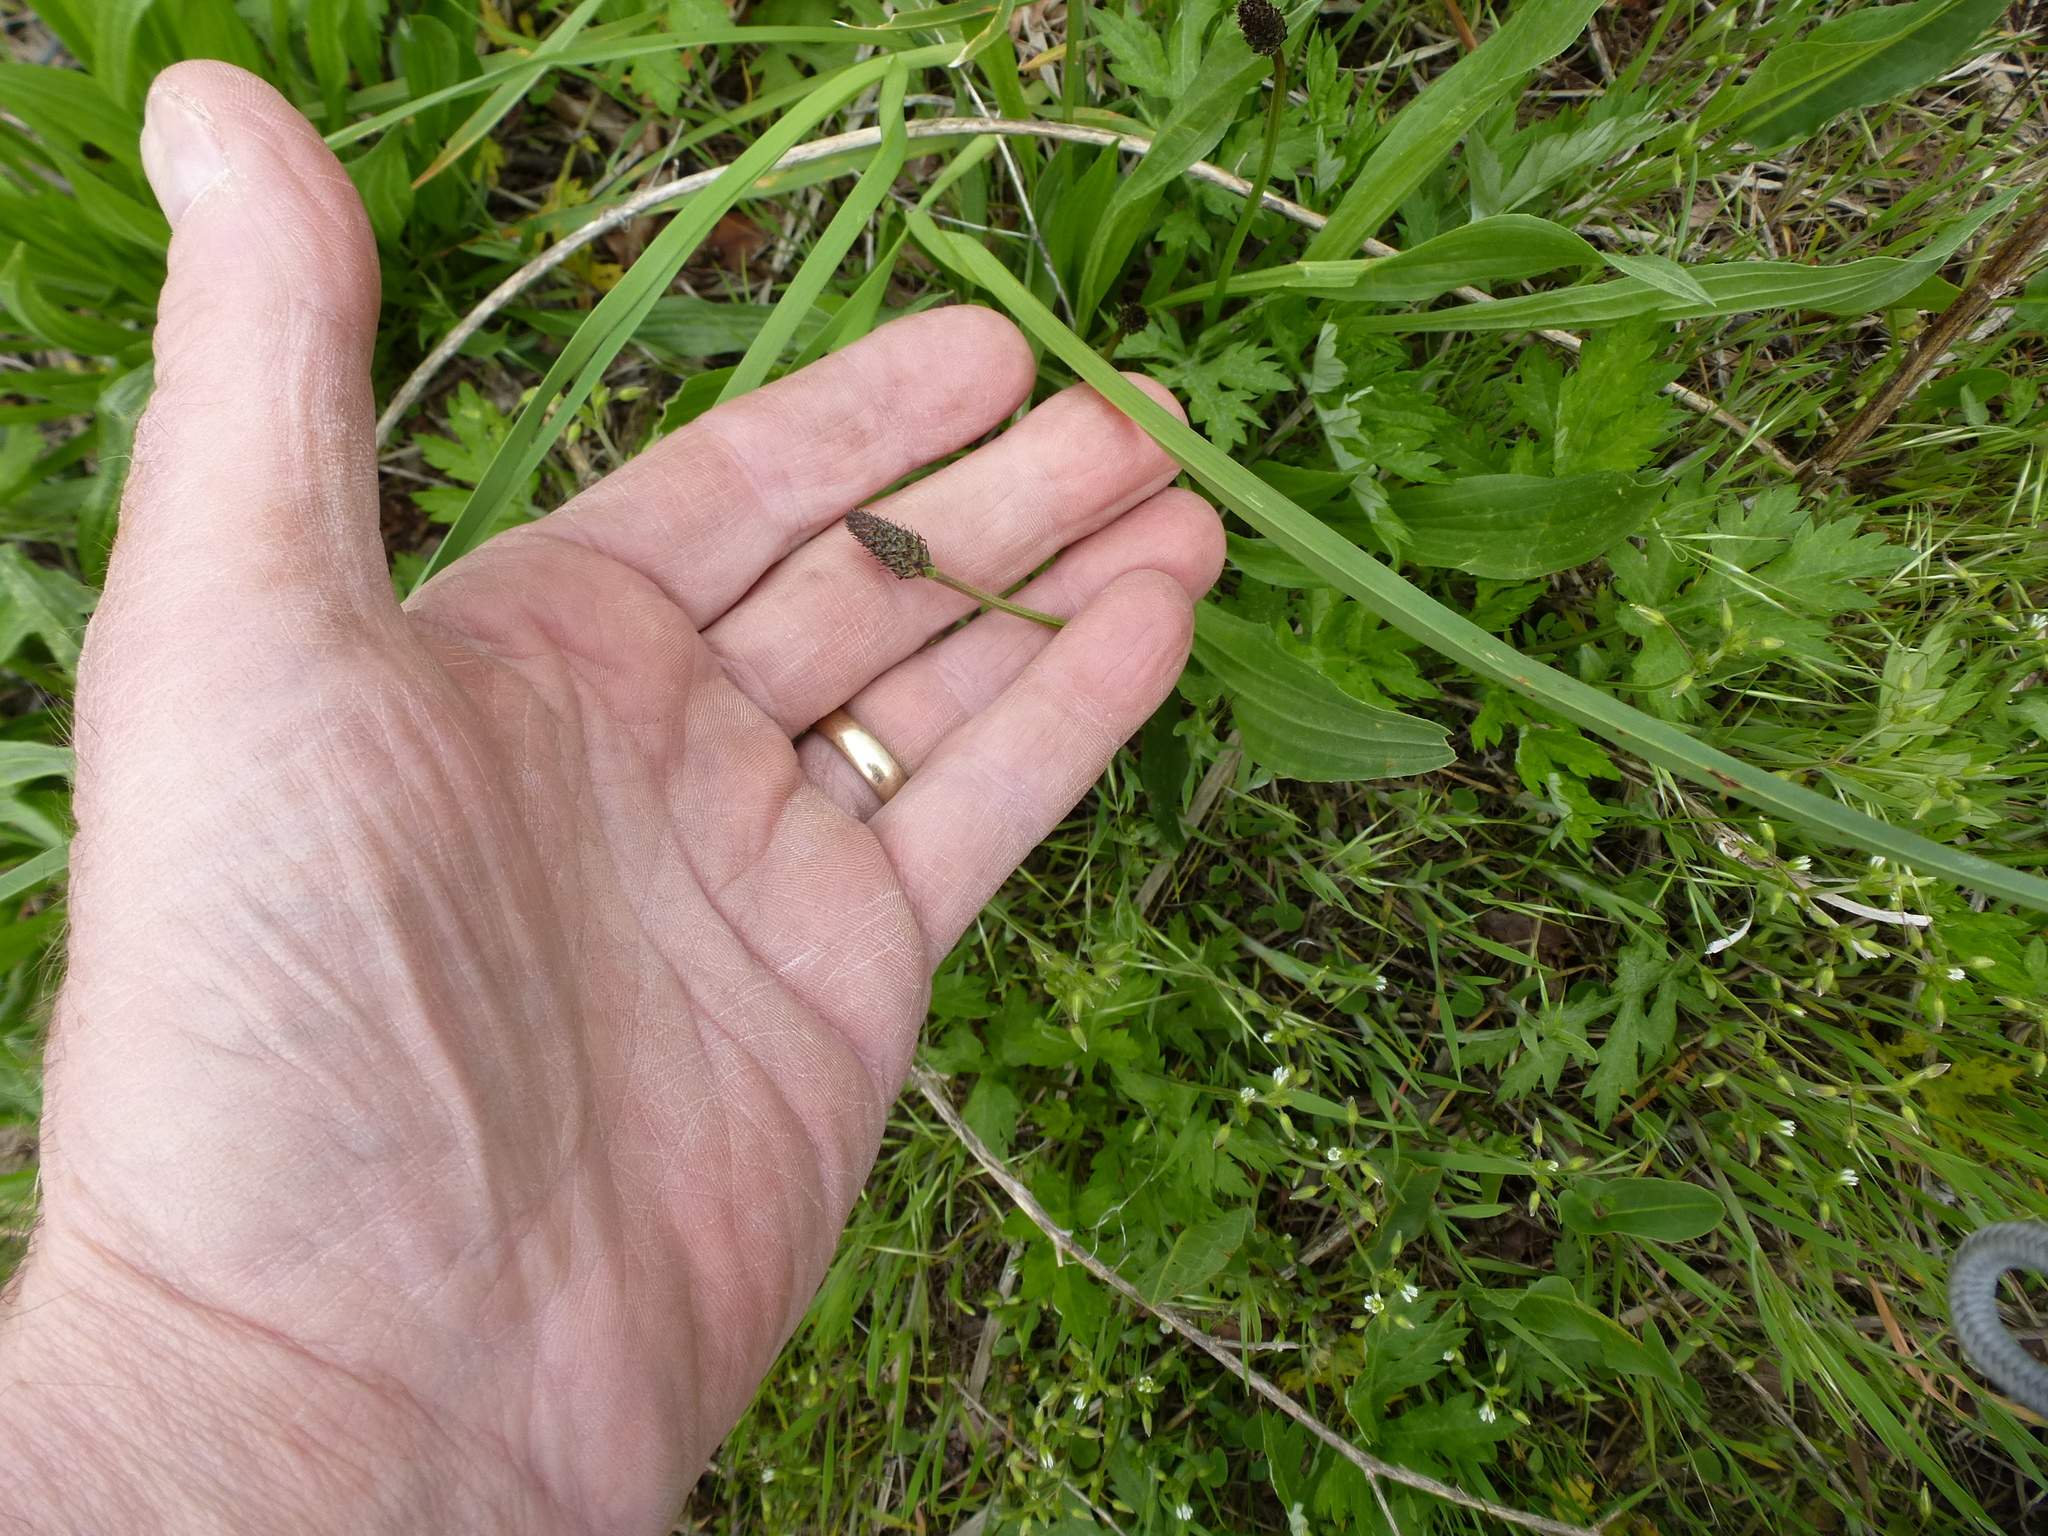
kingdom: Plantae
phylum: Tracheophyta
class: Magnoliopsida
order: Lamiales
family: Plantaginaceae
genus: Plantago
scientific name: Plantago lanceolata
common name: Ribwort plantain
